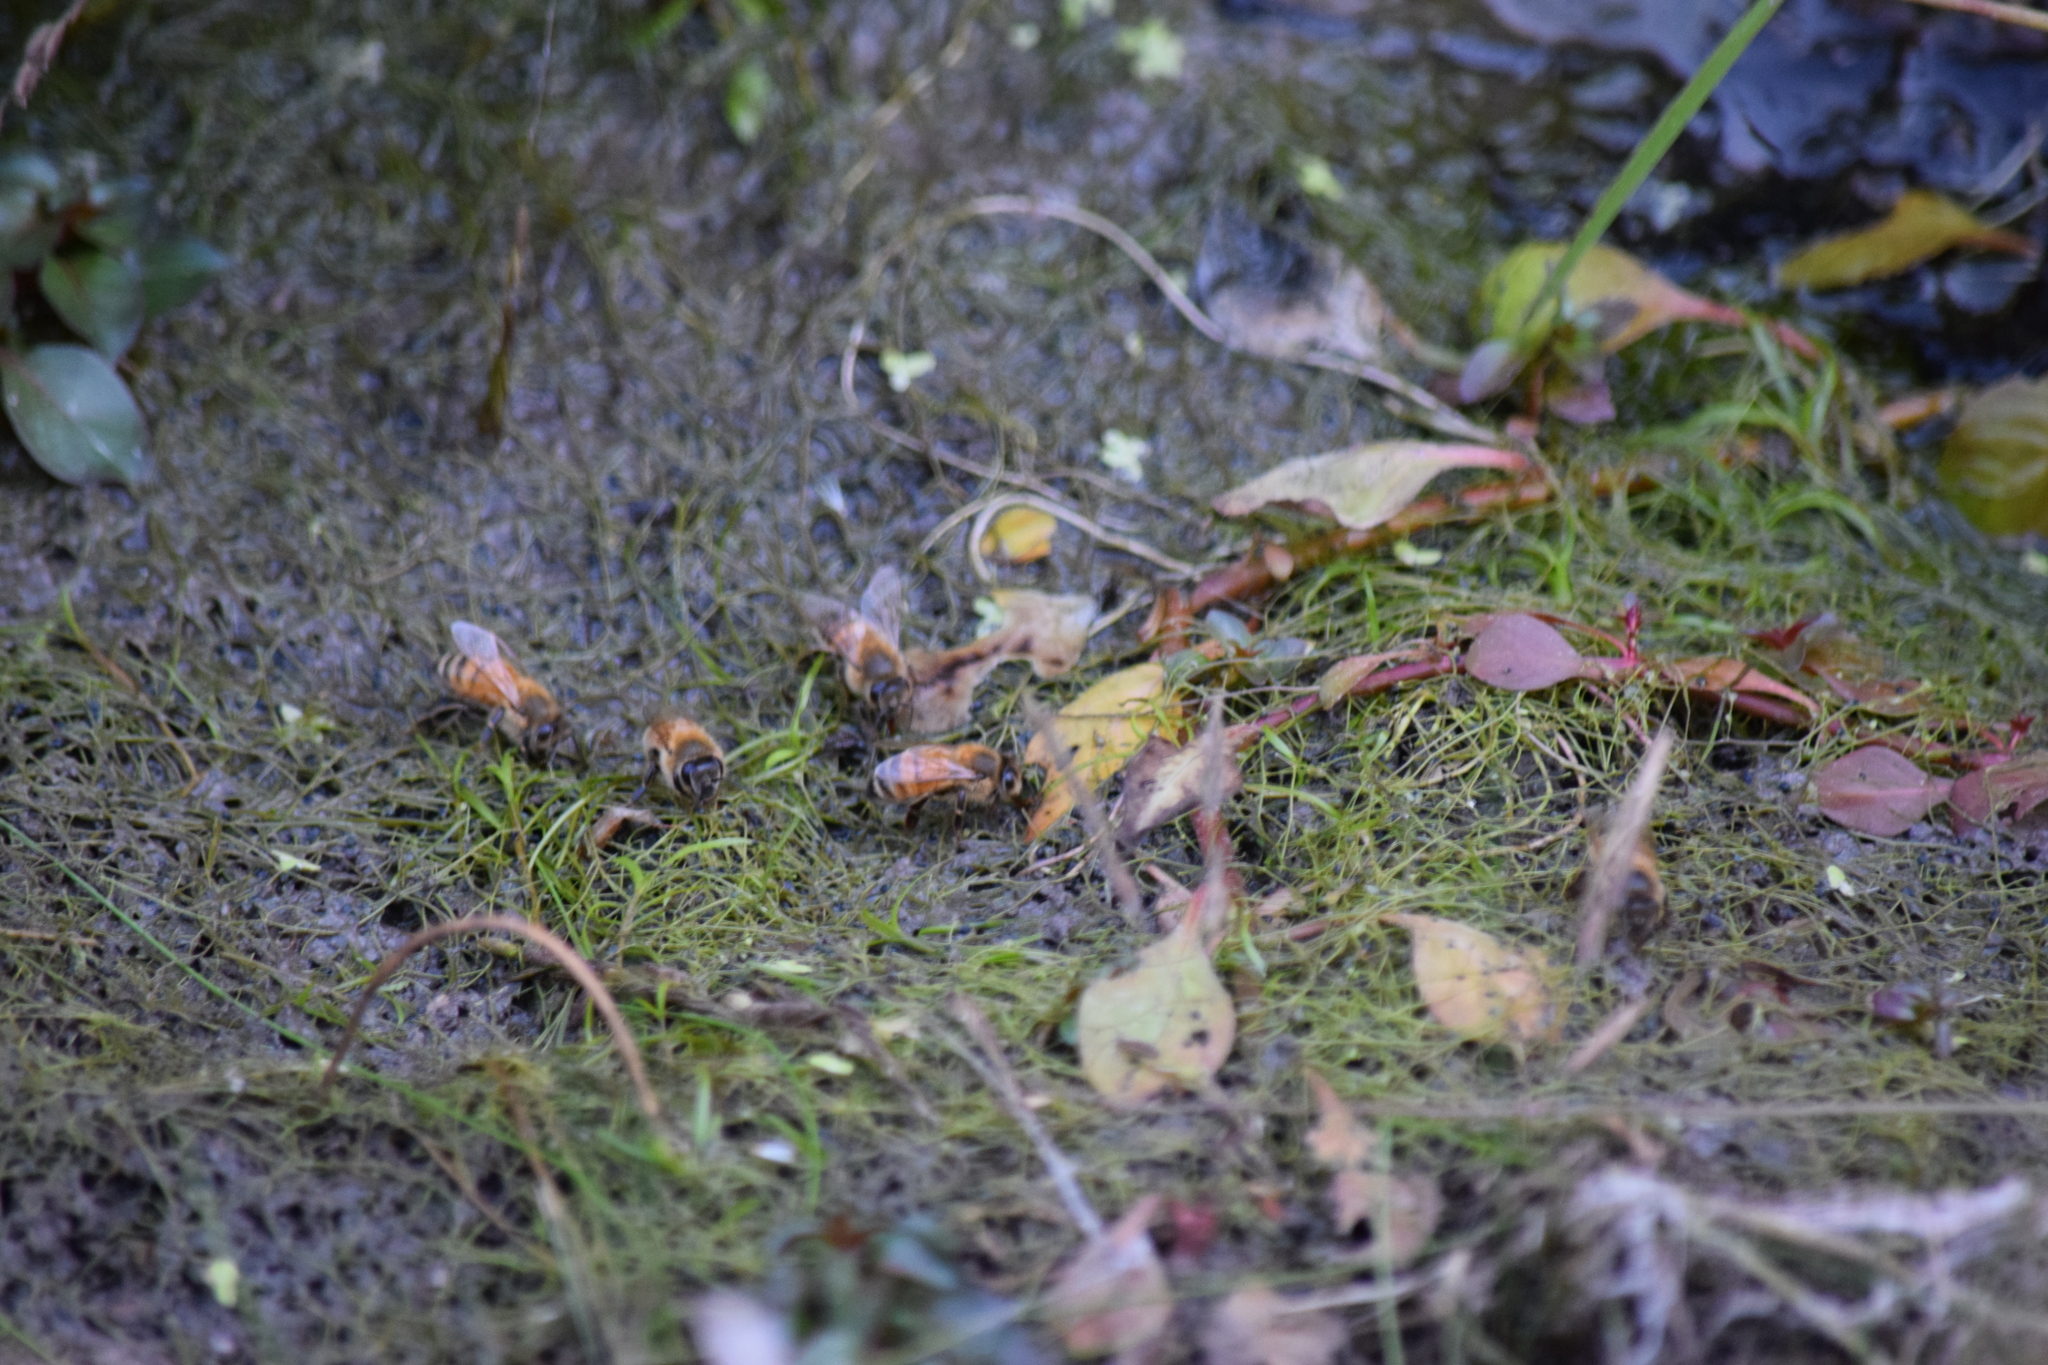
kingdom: Animalia
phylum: Arthropoda
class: Insecta
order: Hymenoptera
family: Apidae
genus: Apis
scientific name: Apis mellifera
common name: Honey bee
